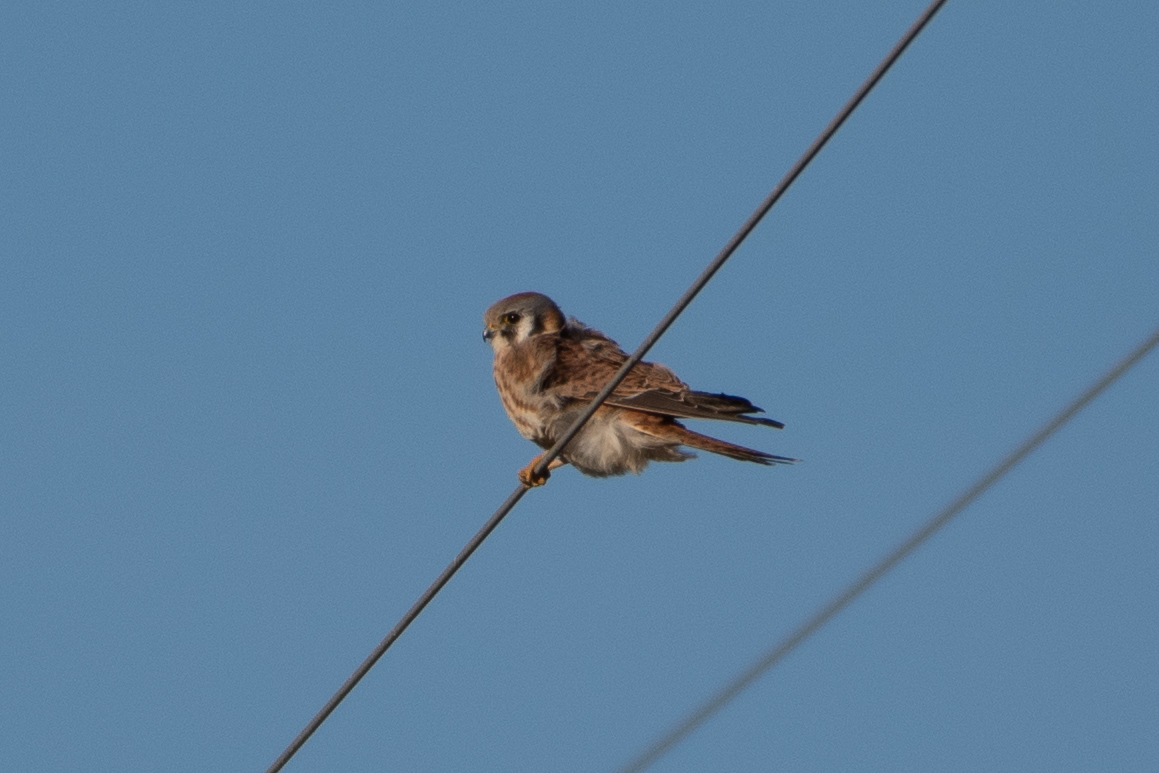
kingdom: Animalia
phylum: Chordata
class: Aves
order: Falconiformes
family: Falconidae
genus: Falco
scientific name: Falco sparverius
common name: American kestrel
